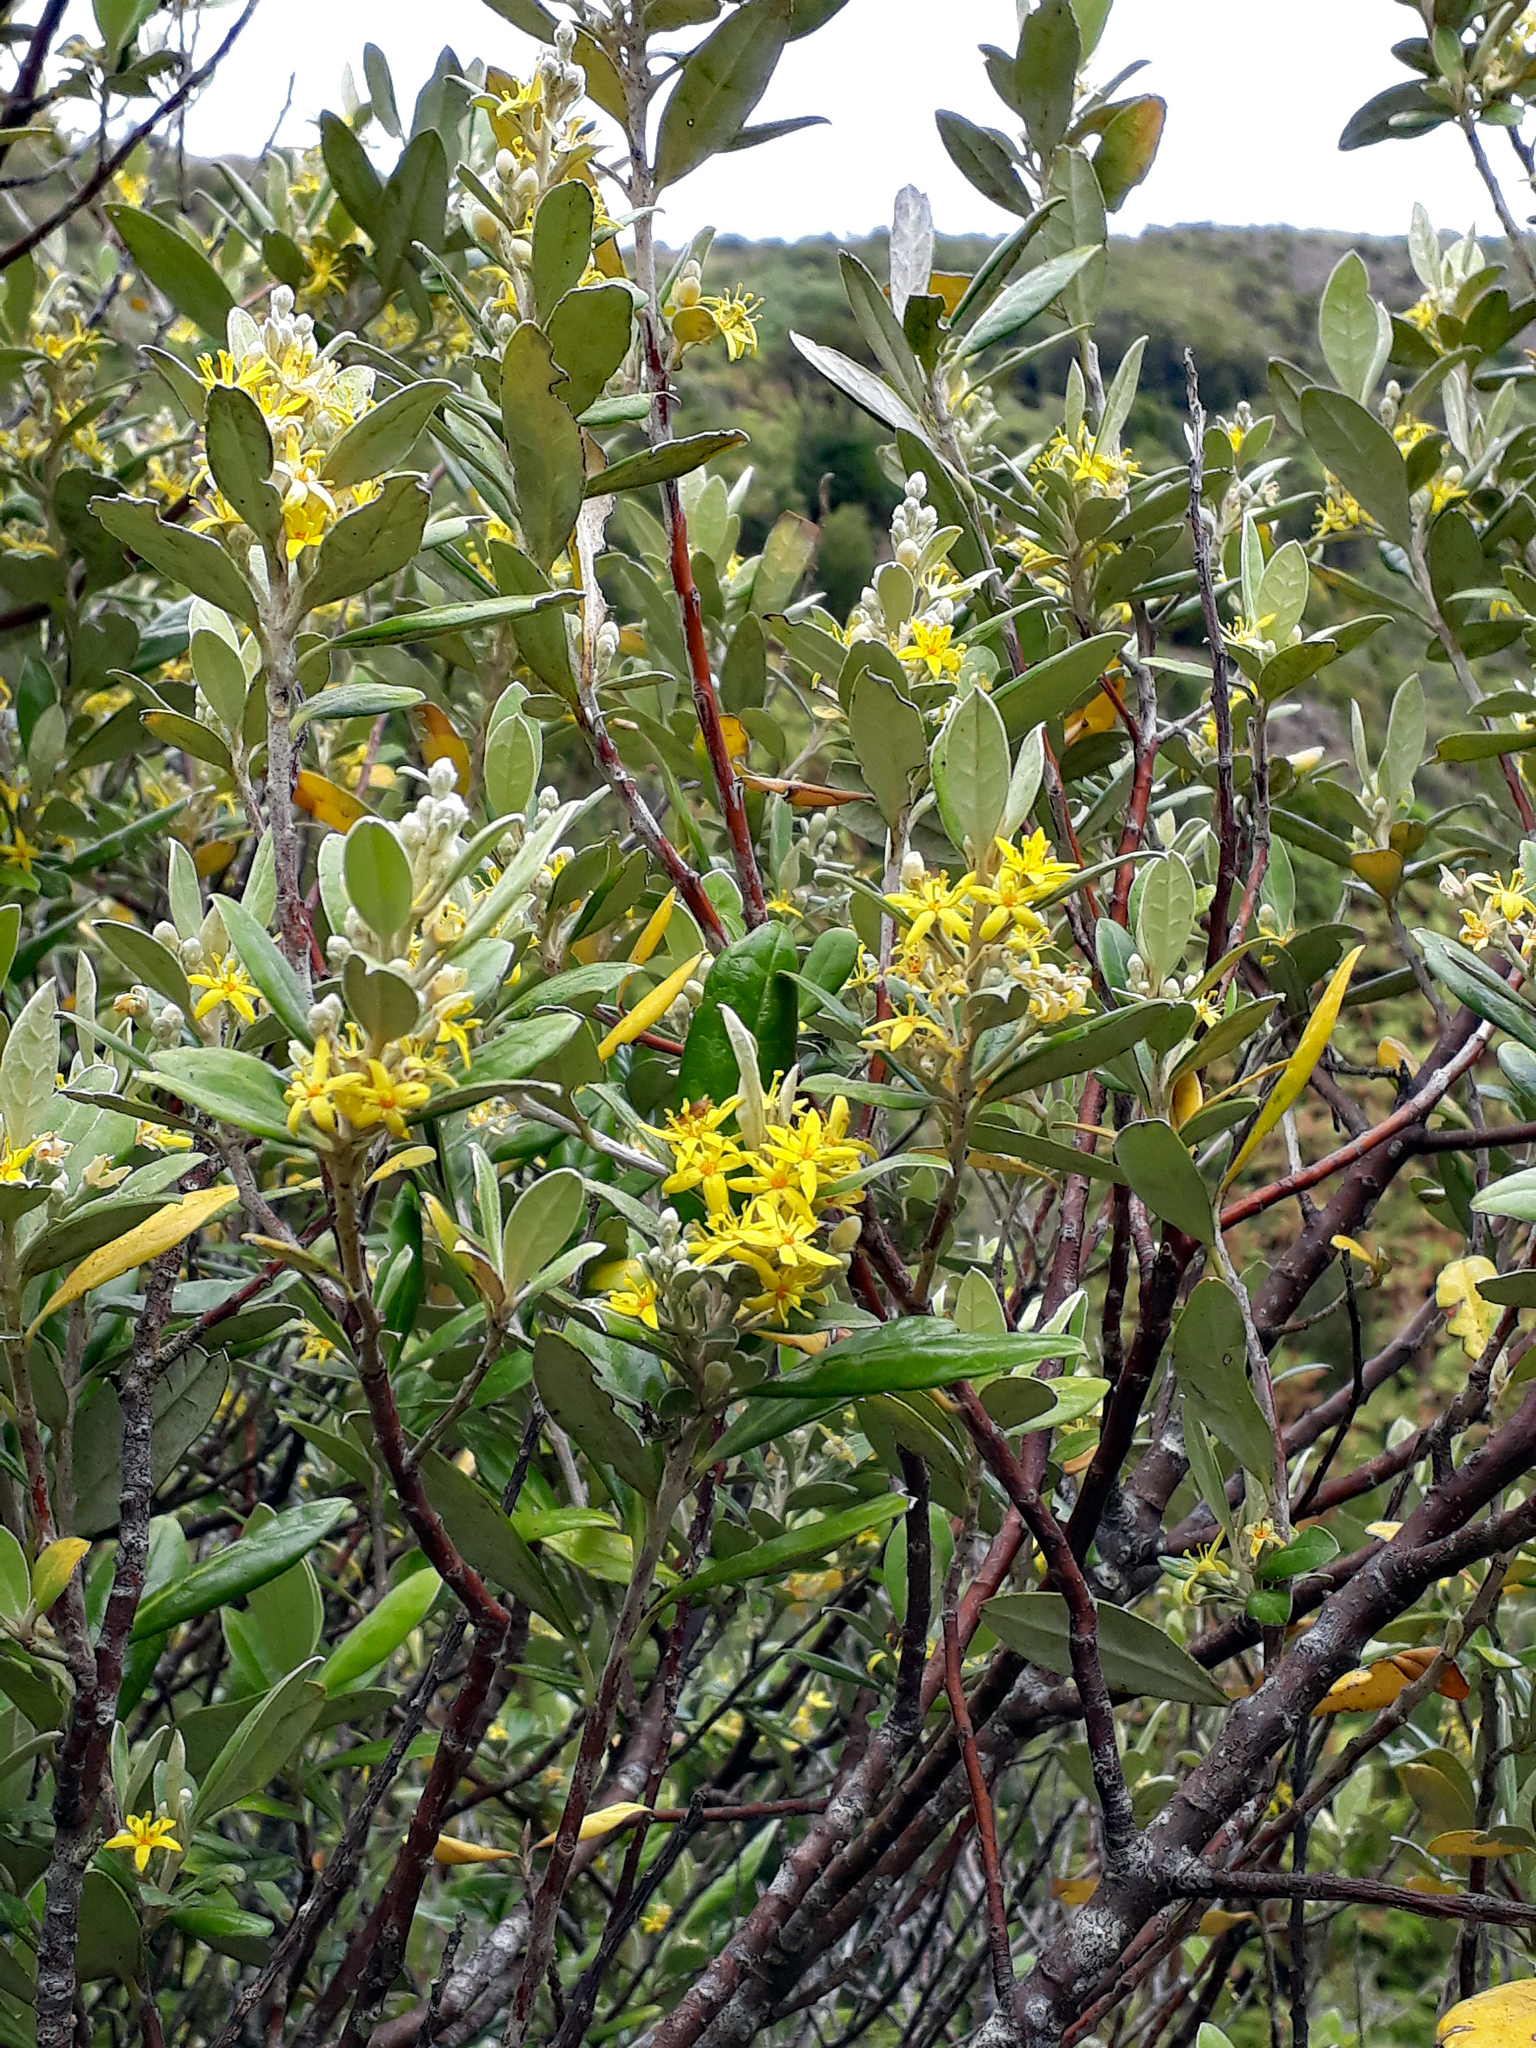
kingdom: Plantae
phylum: Tracheophyta
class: Magnoliopsida
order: Asterales
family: Argophyllaceae
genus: Corokia
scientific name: Corokia macrocarpa
